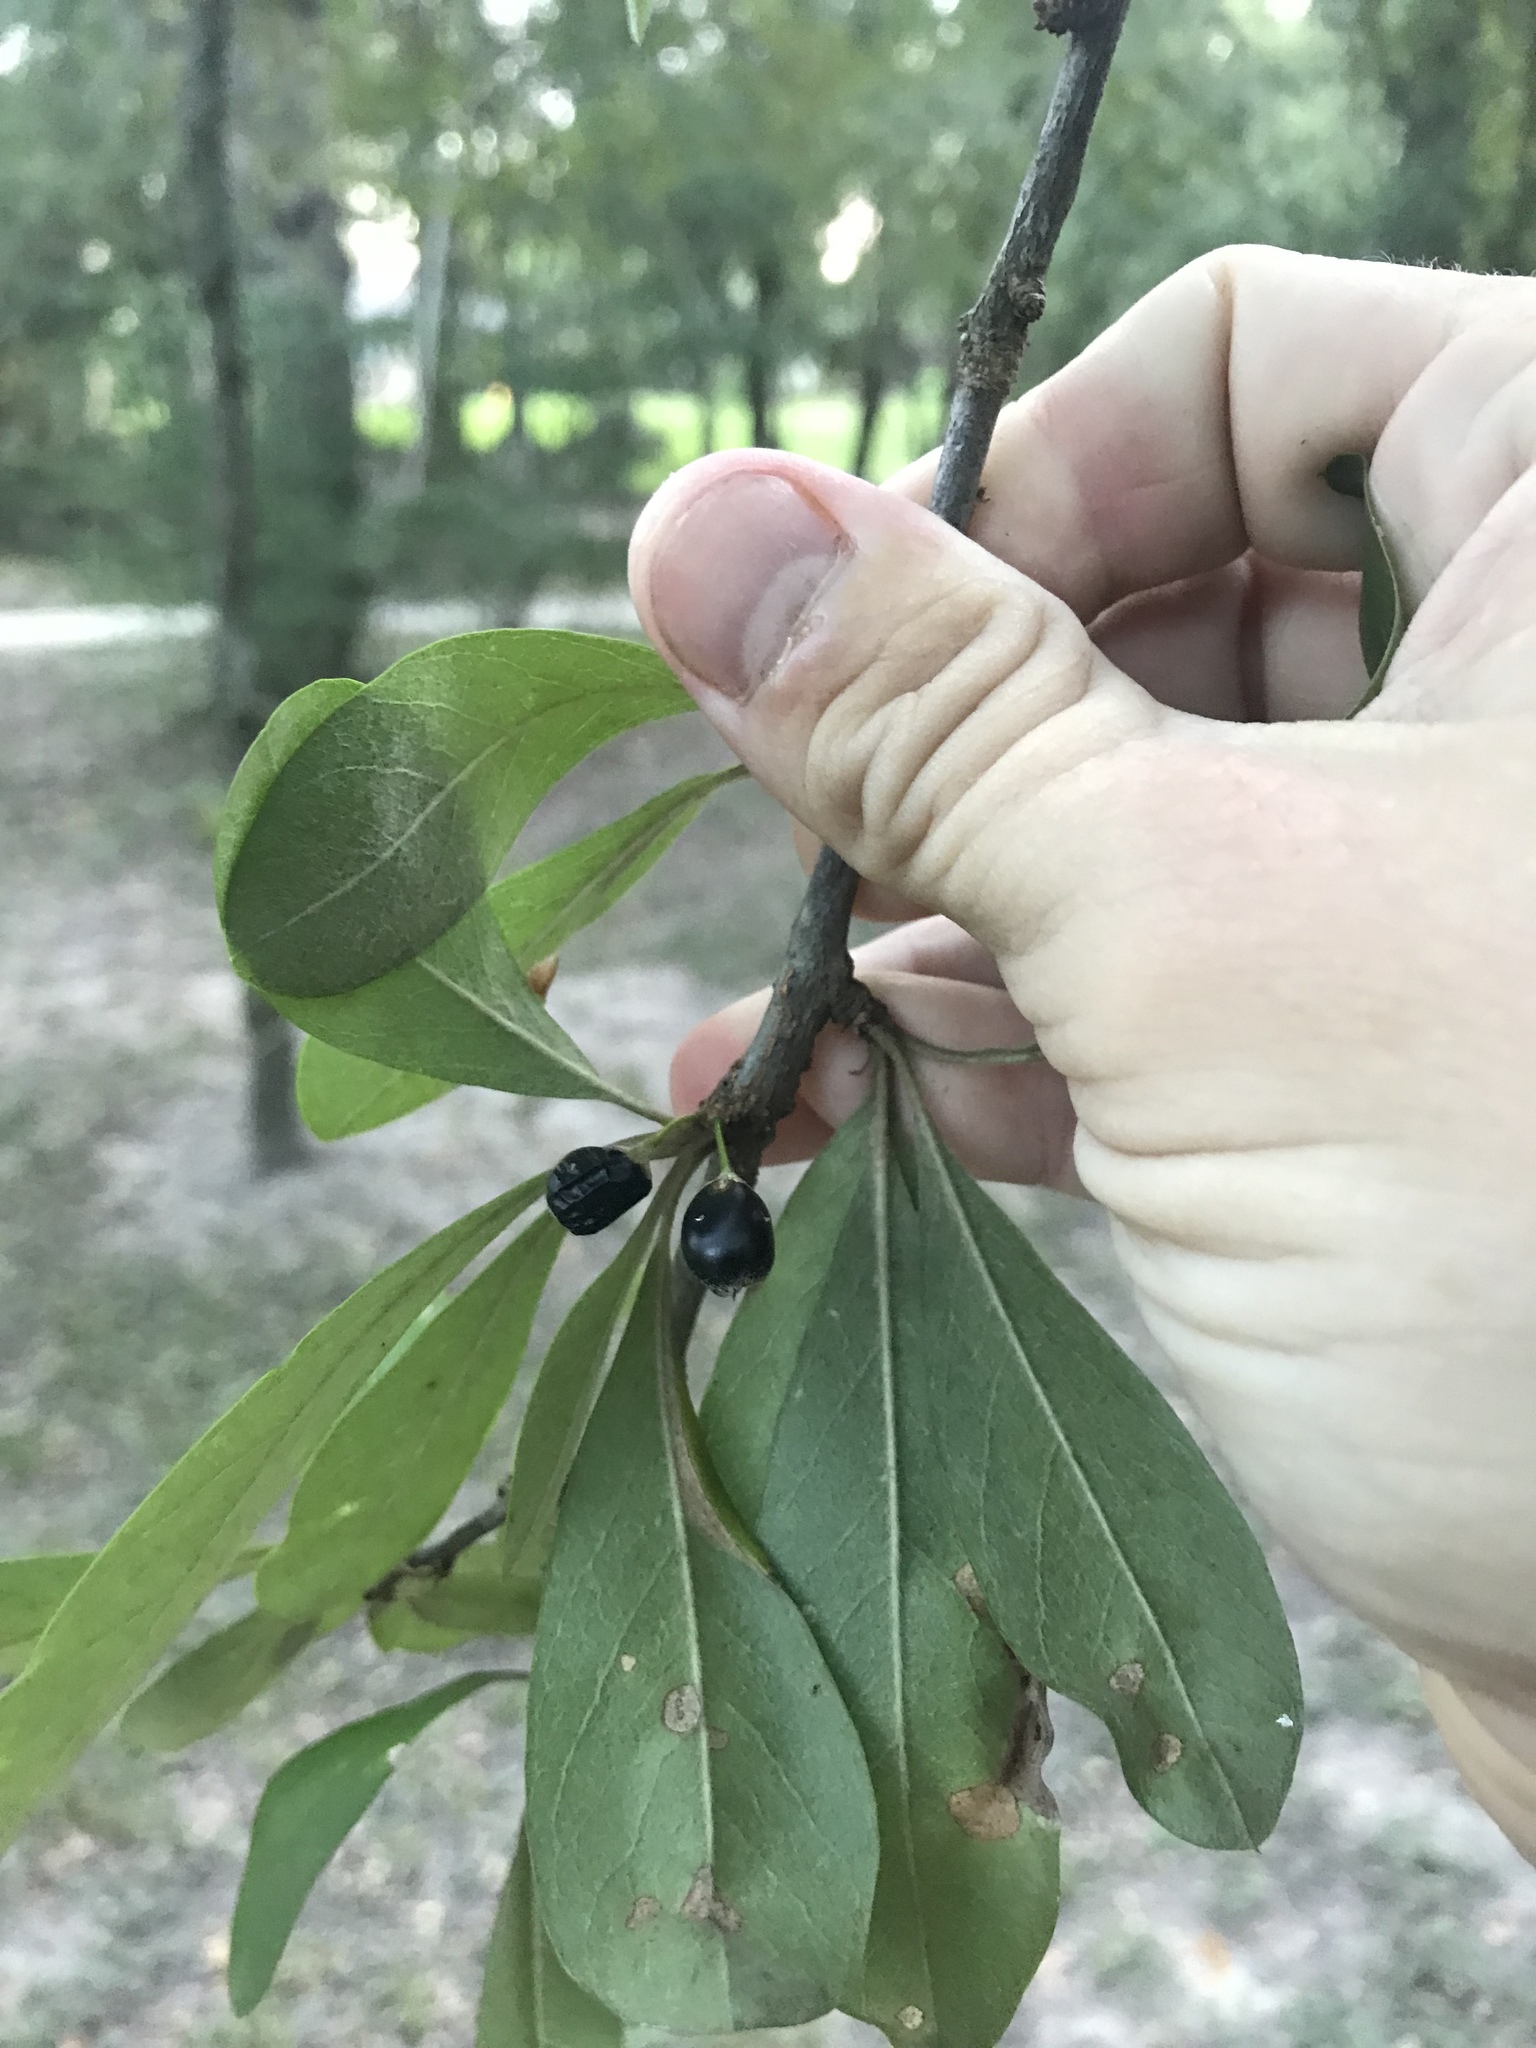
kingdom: Plantae
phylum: Tracheophyta
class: Magnoliopsida
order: Ericales
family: Sapotaceae
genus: Sideroxylon
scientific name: Sideroxylon lanuginosum
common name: Chittamwood
